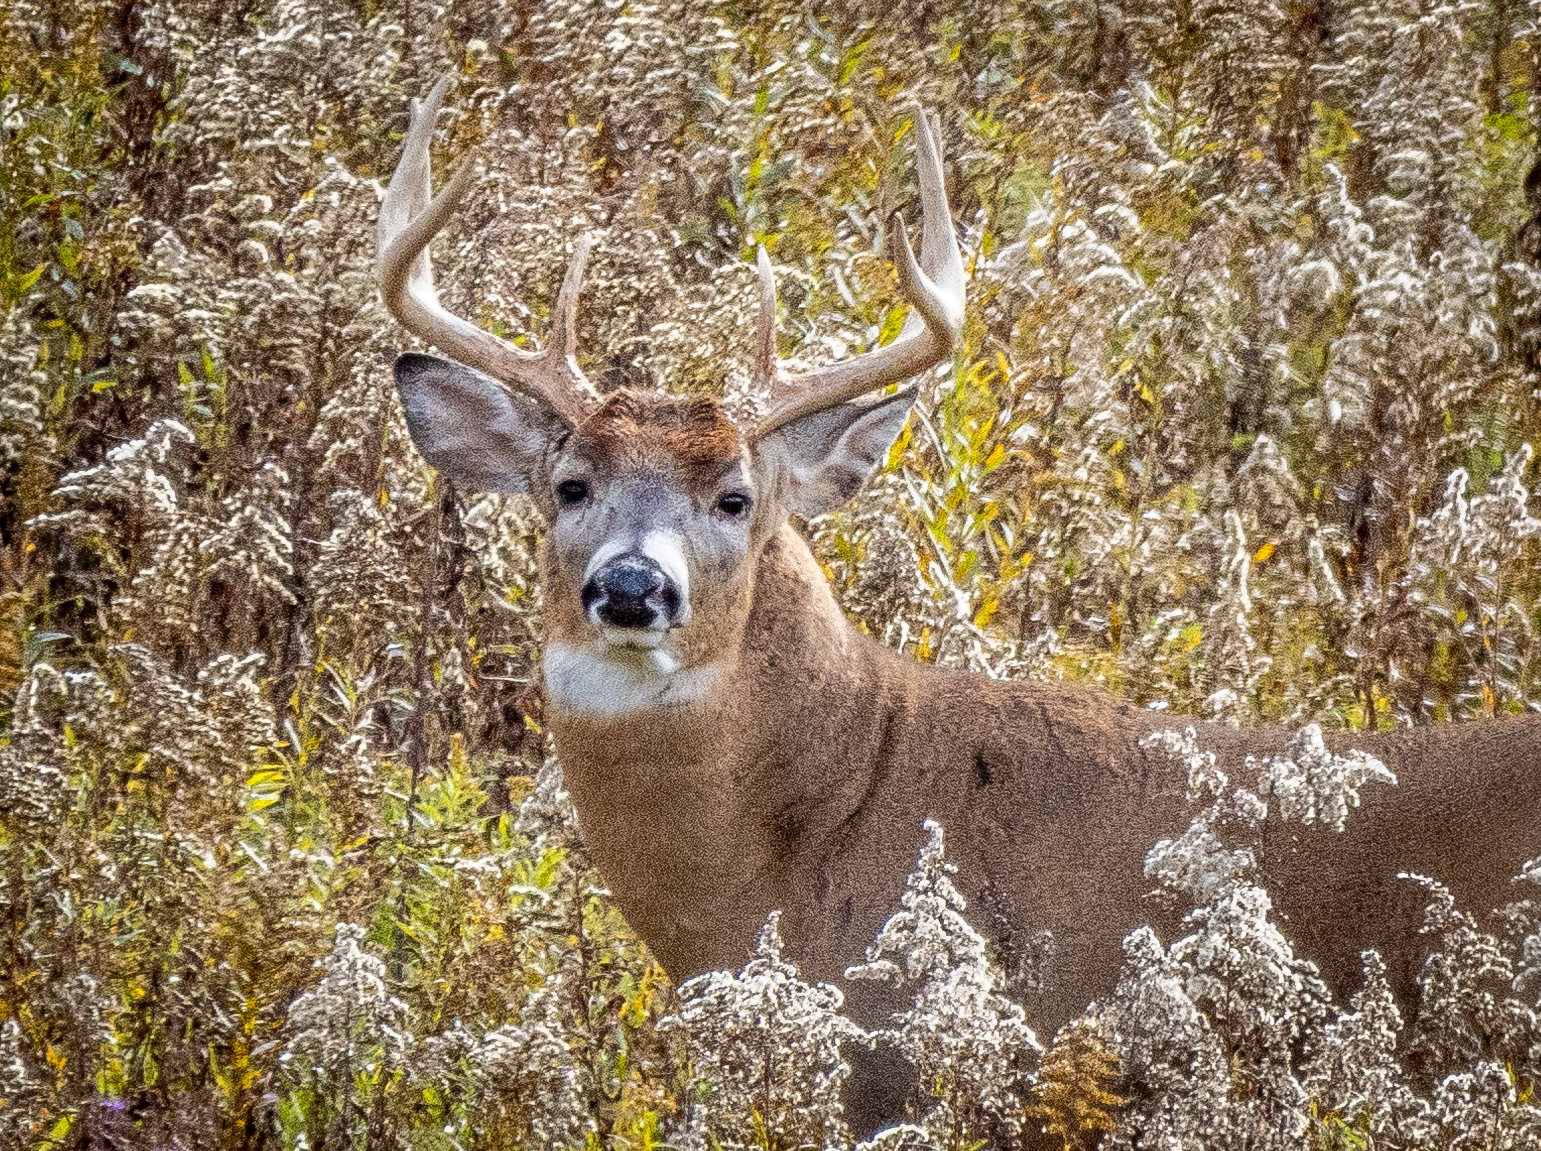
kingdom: Animalia
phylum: Chordata
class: Mammalia
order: Artiodactyla
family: Cervidae
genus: Odocoileus
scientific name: Odocoileus virginianus
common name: White-tailed deer
